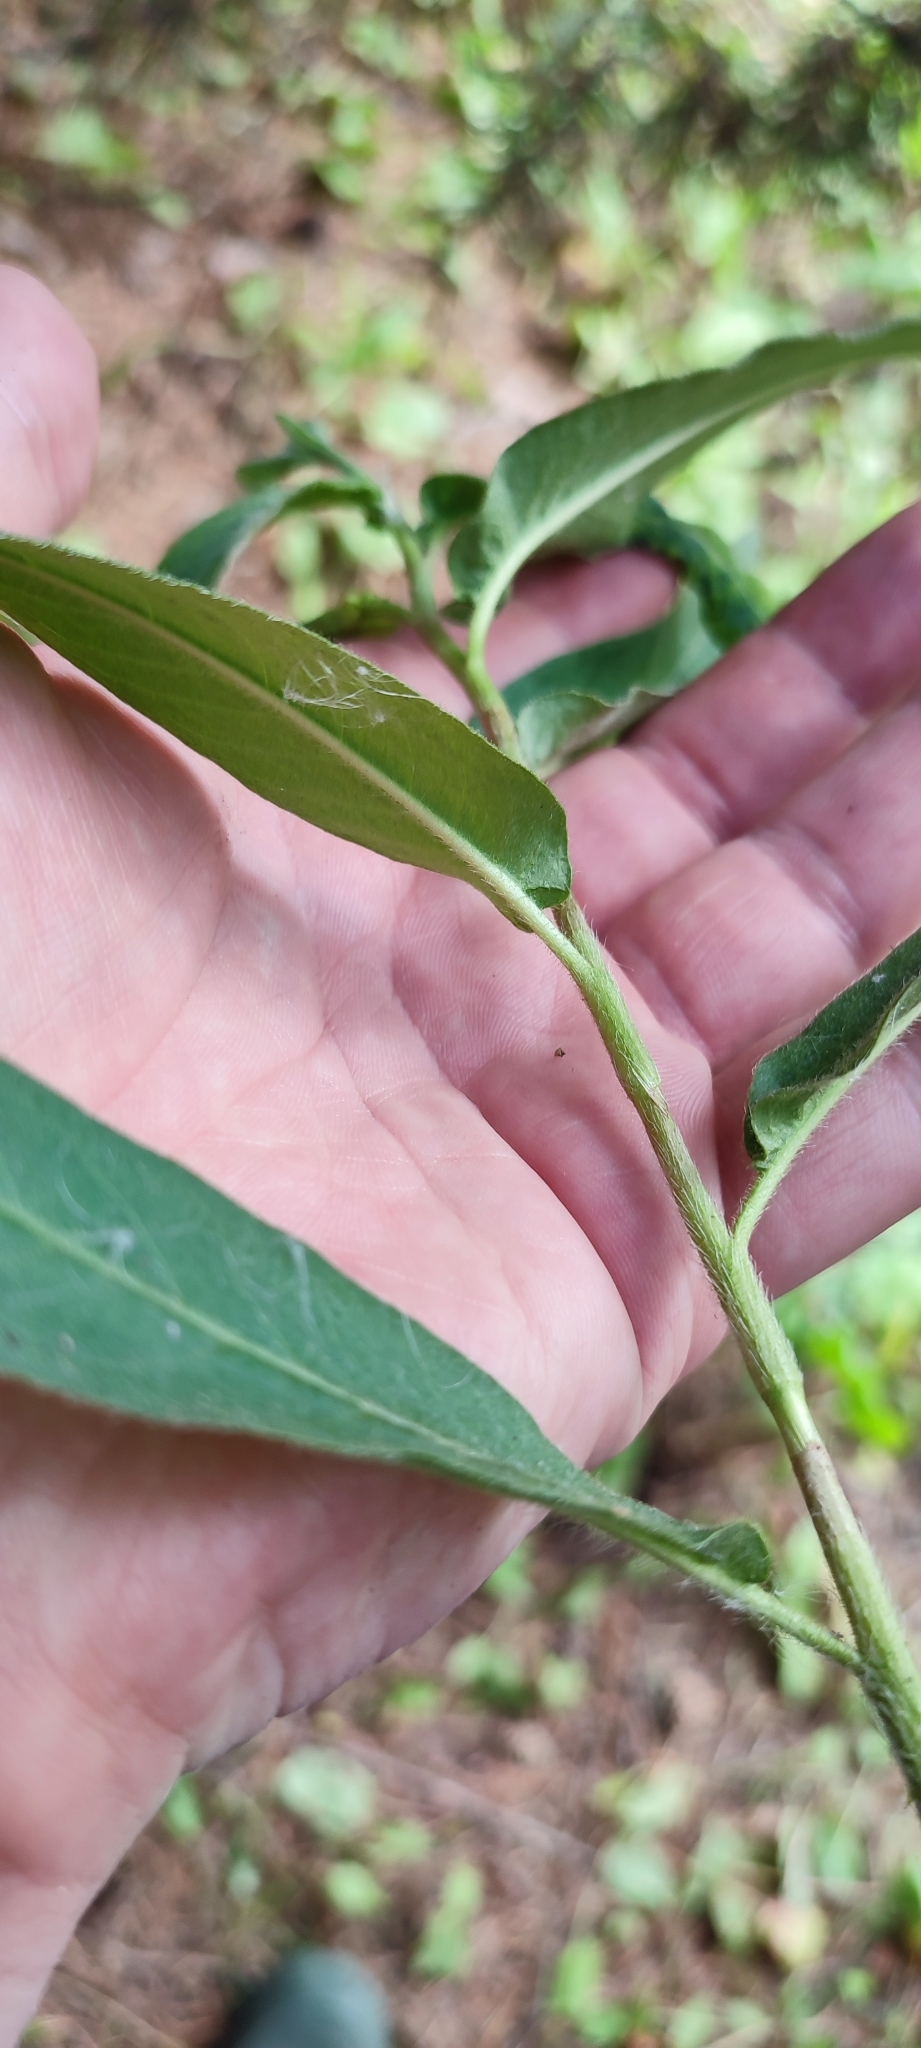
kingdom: Plantae
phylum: Tracheophyta
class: Magnoliopsida
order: Caryophyllales
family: Polygonaceae
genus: Persicaria
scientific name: Persicaria amphibia
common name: Amphibious bistort
